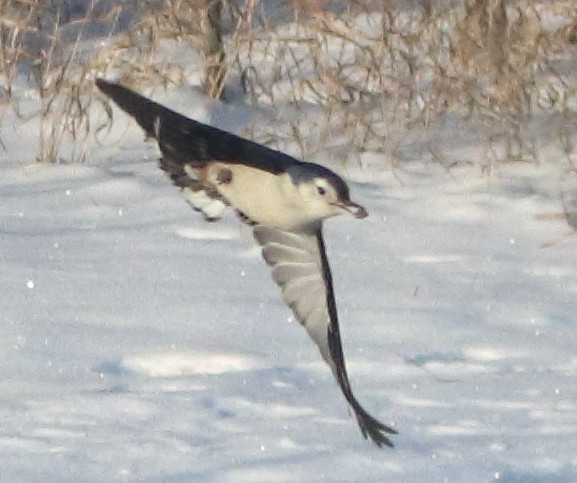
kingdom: Animalia
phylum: Chordata
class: Aves
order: Passeriformes
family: Sittidae
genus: Sitta
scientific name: Sitta carolinensis
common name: White-breasted nuthatch
